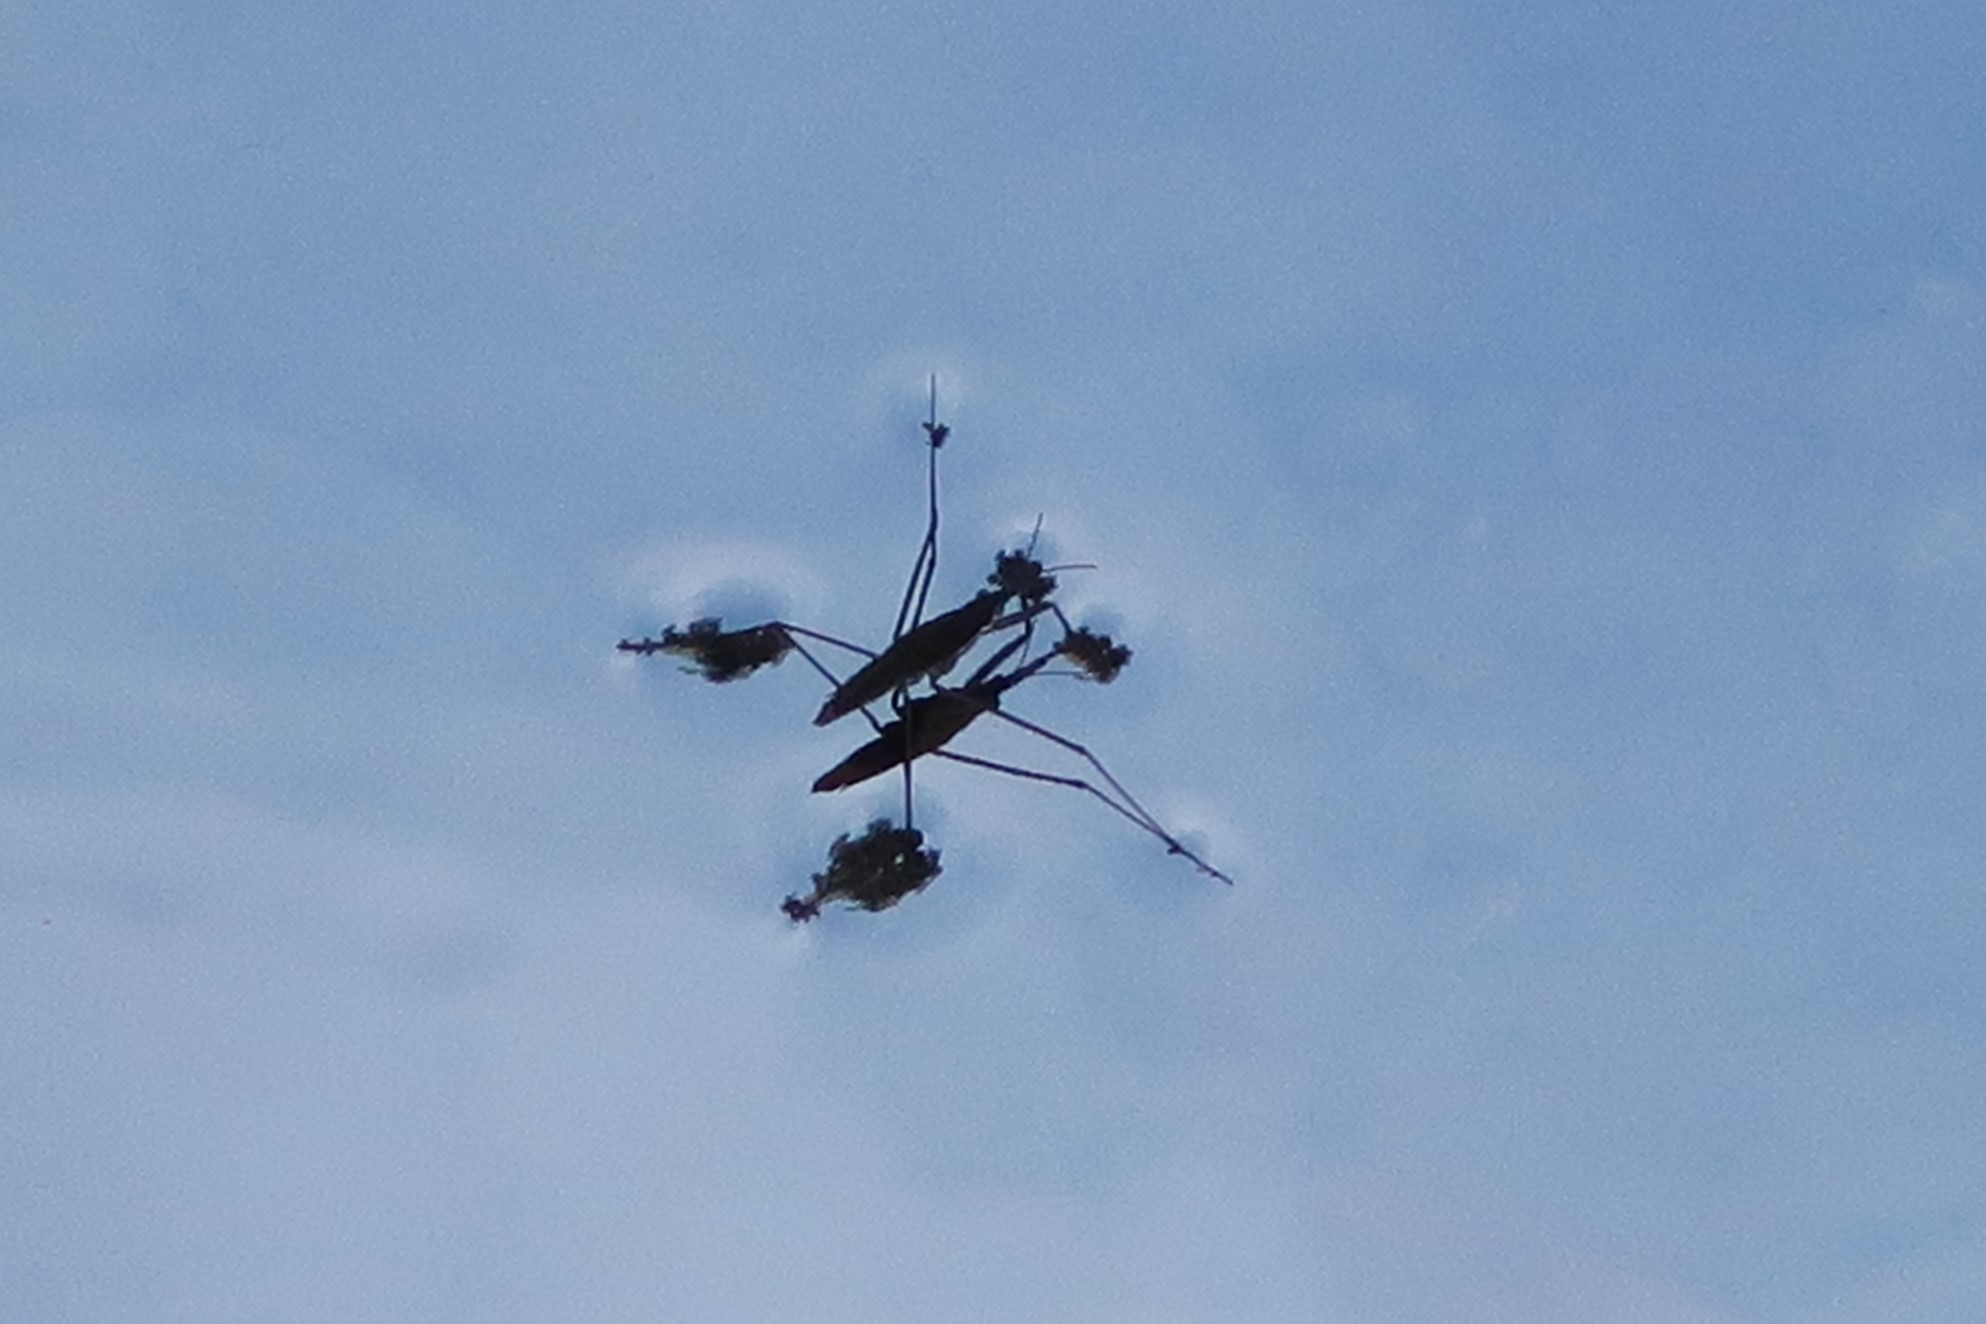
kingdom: Animalia
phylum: Arthropoda
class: Insecta
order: Hemiptera
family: Gerridae
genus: Aquarius
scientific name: Aquarius remigis
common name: Common water strider
